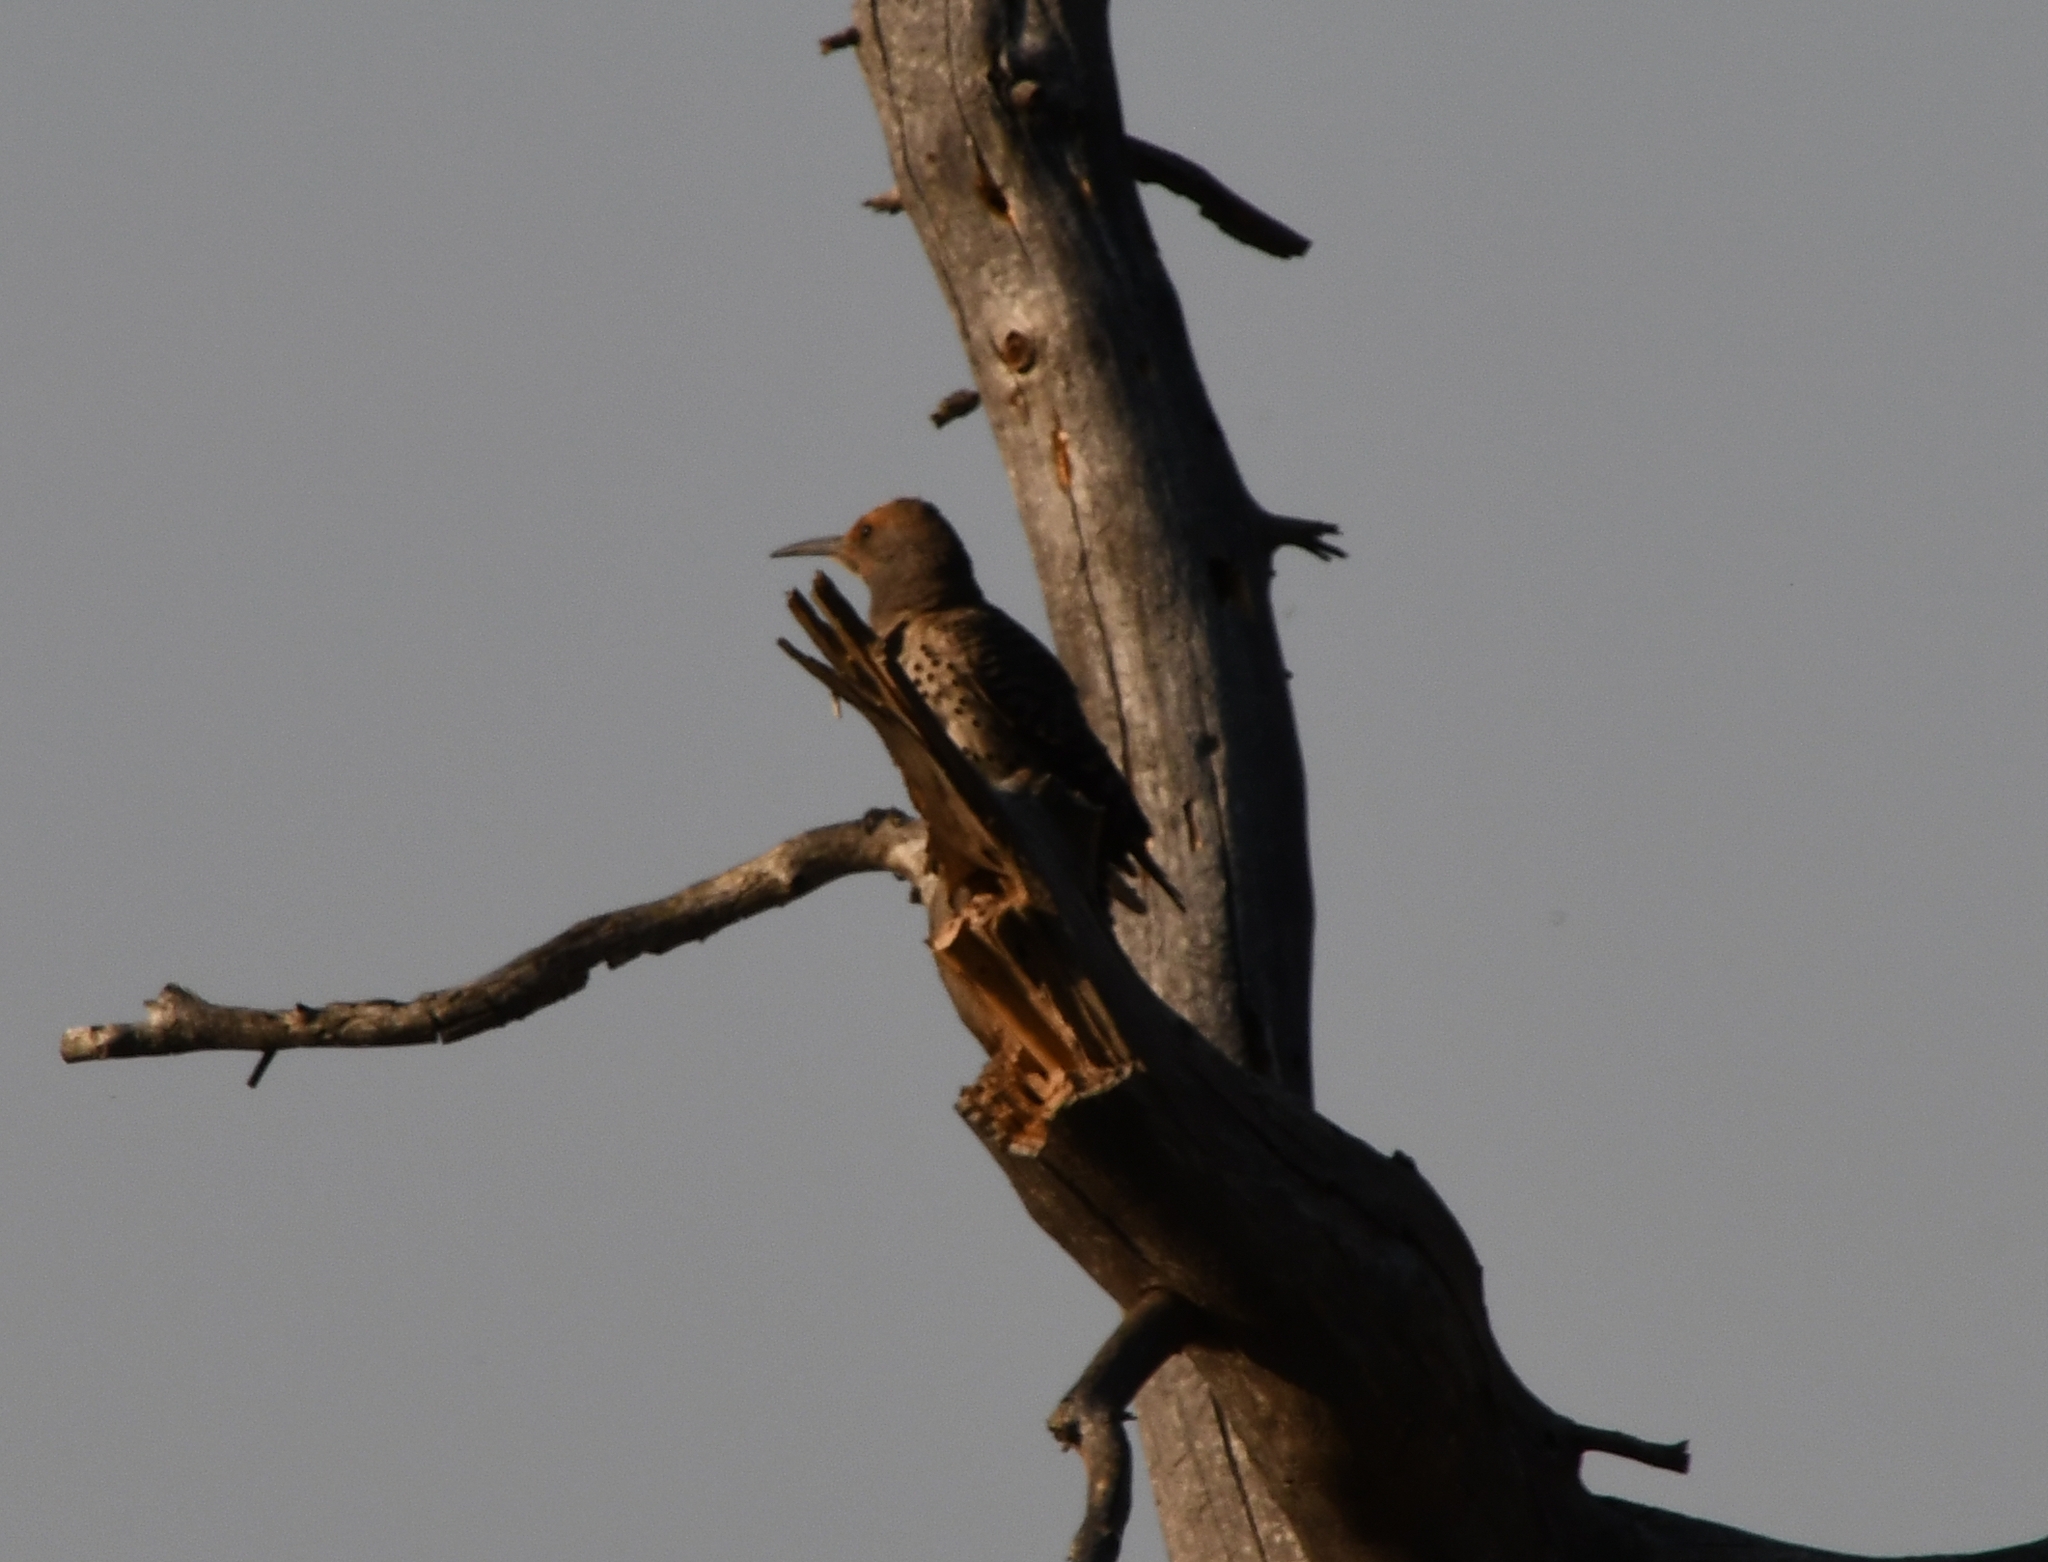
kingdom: Animalia
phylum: Chordata
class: Aves
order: Piciformes
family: Picidae
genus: Colaptes
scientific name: Colaptes auratus
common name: Northern flicker
